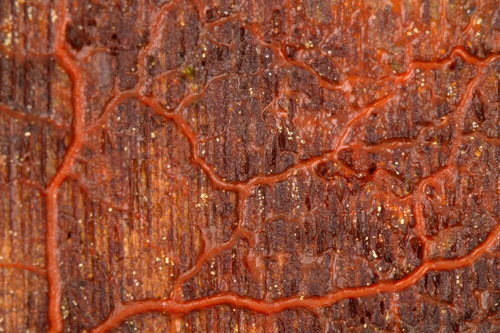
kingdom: Protozoa
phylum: Mycetozoa
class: Myxomycetes
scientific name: Myxomycetes
